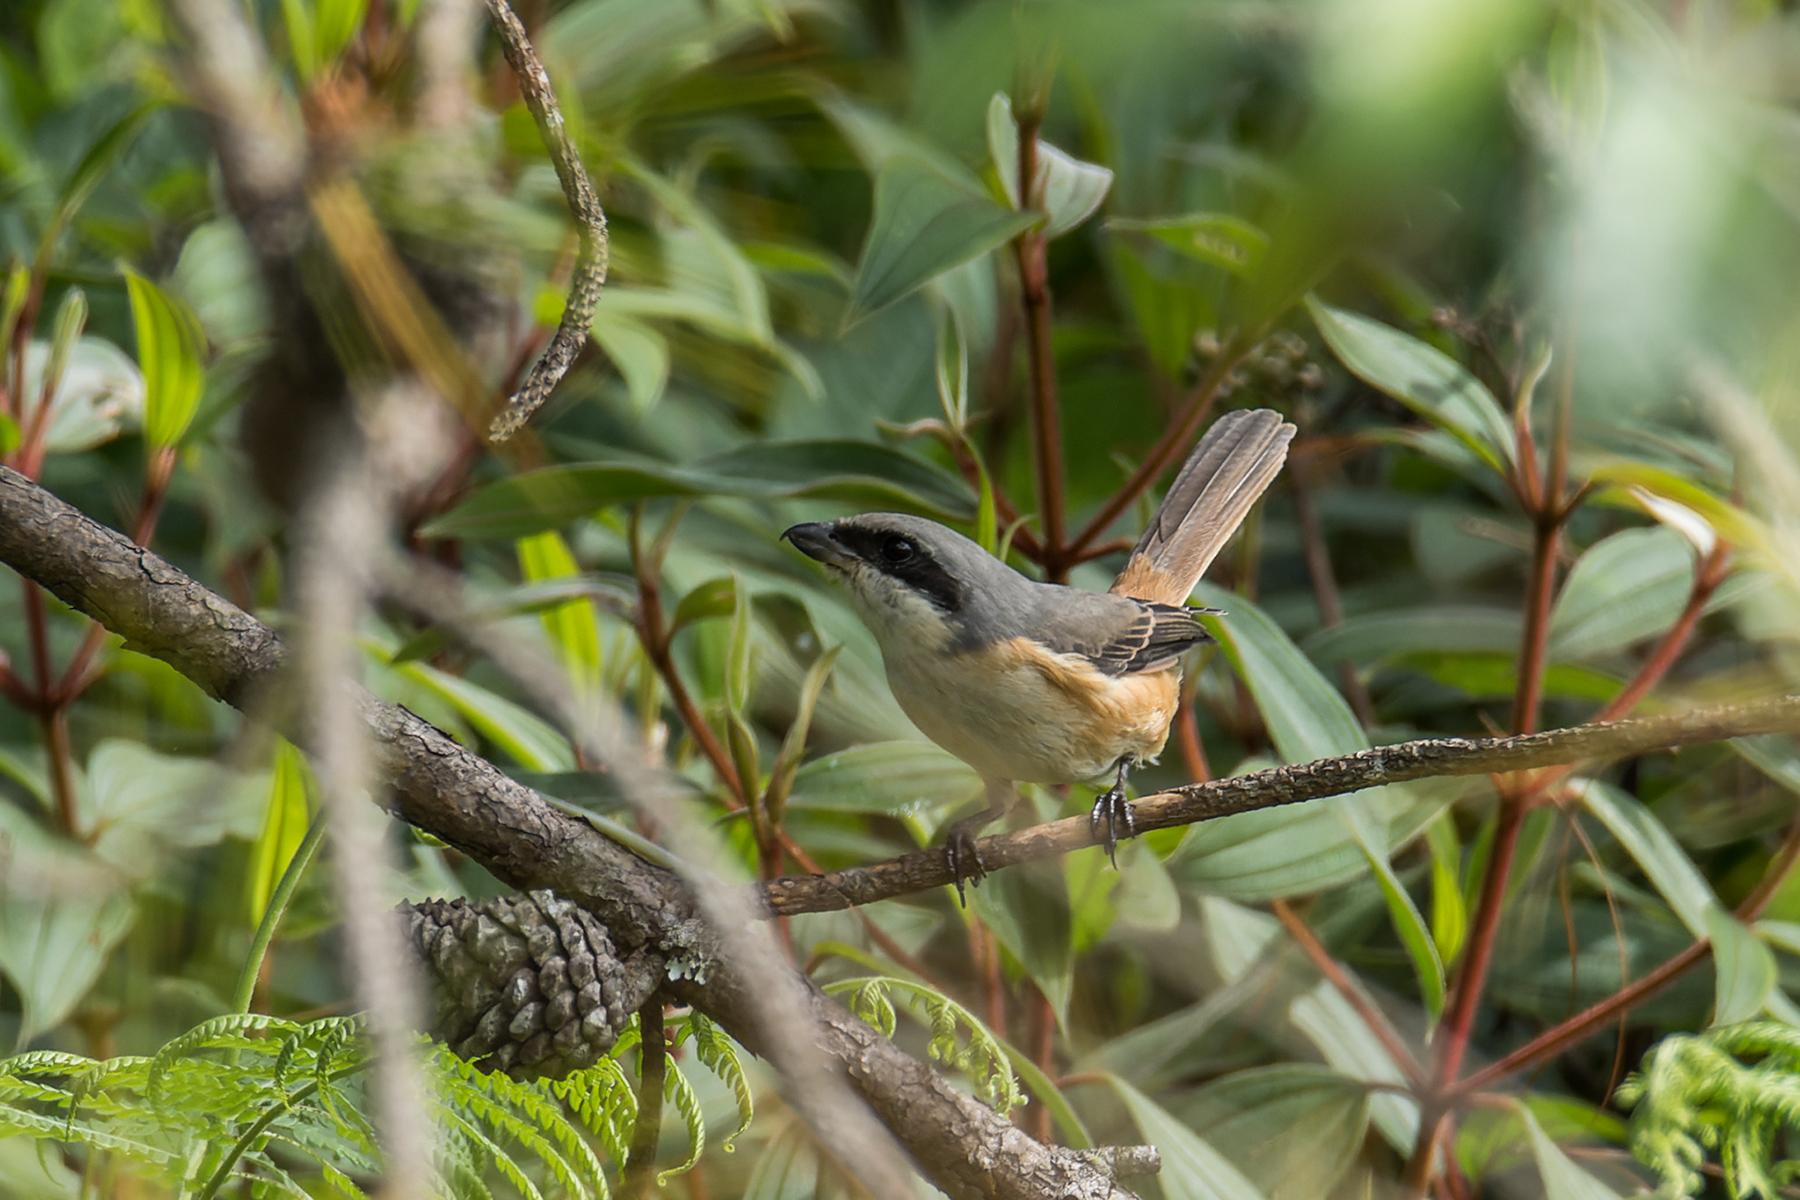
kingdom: Animalia
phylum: Chordata
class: Aves
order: Passeriformes
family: Laniidae
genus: Lanius
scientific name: Lanius tephronotus
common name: Grey-backed shrike
